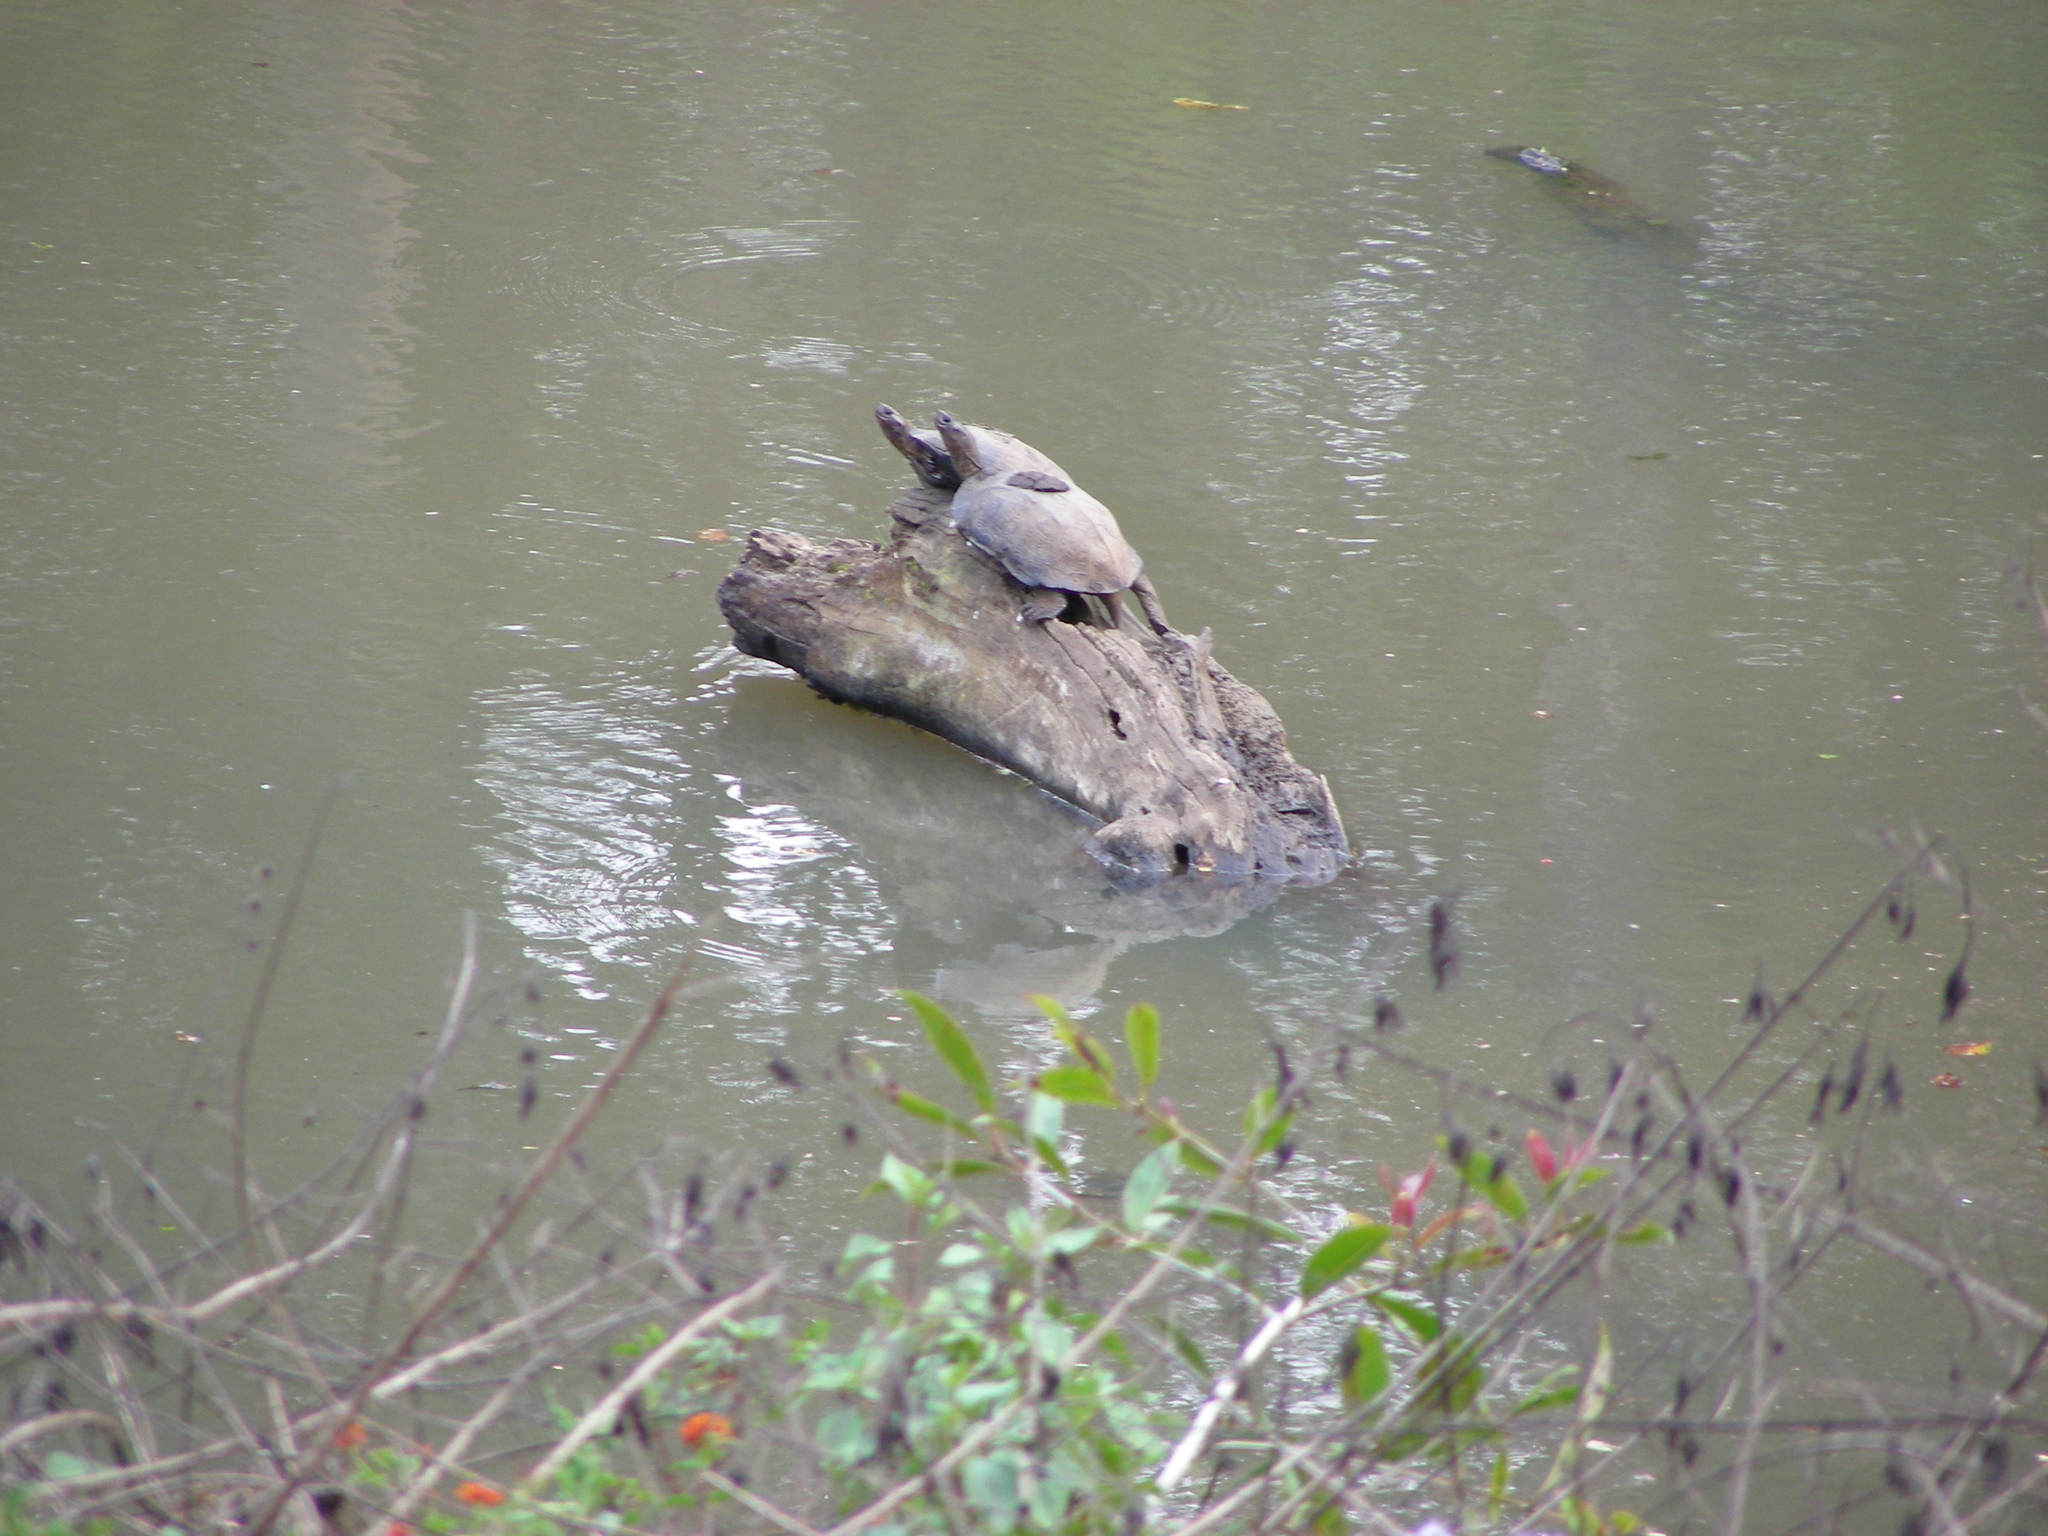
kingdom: Animalia
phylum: Chordata
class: Testudines
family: Geoemydidae
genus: Melanochelys
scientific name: Melanochelys trijuga
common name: Indian black turtle
